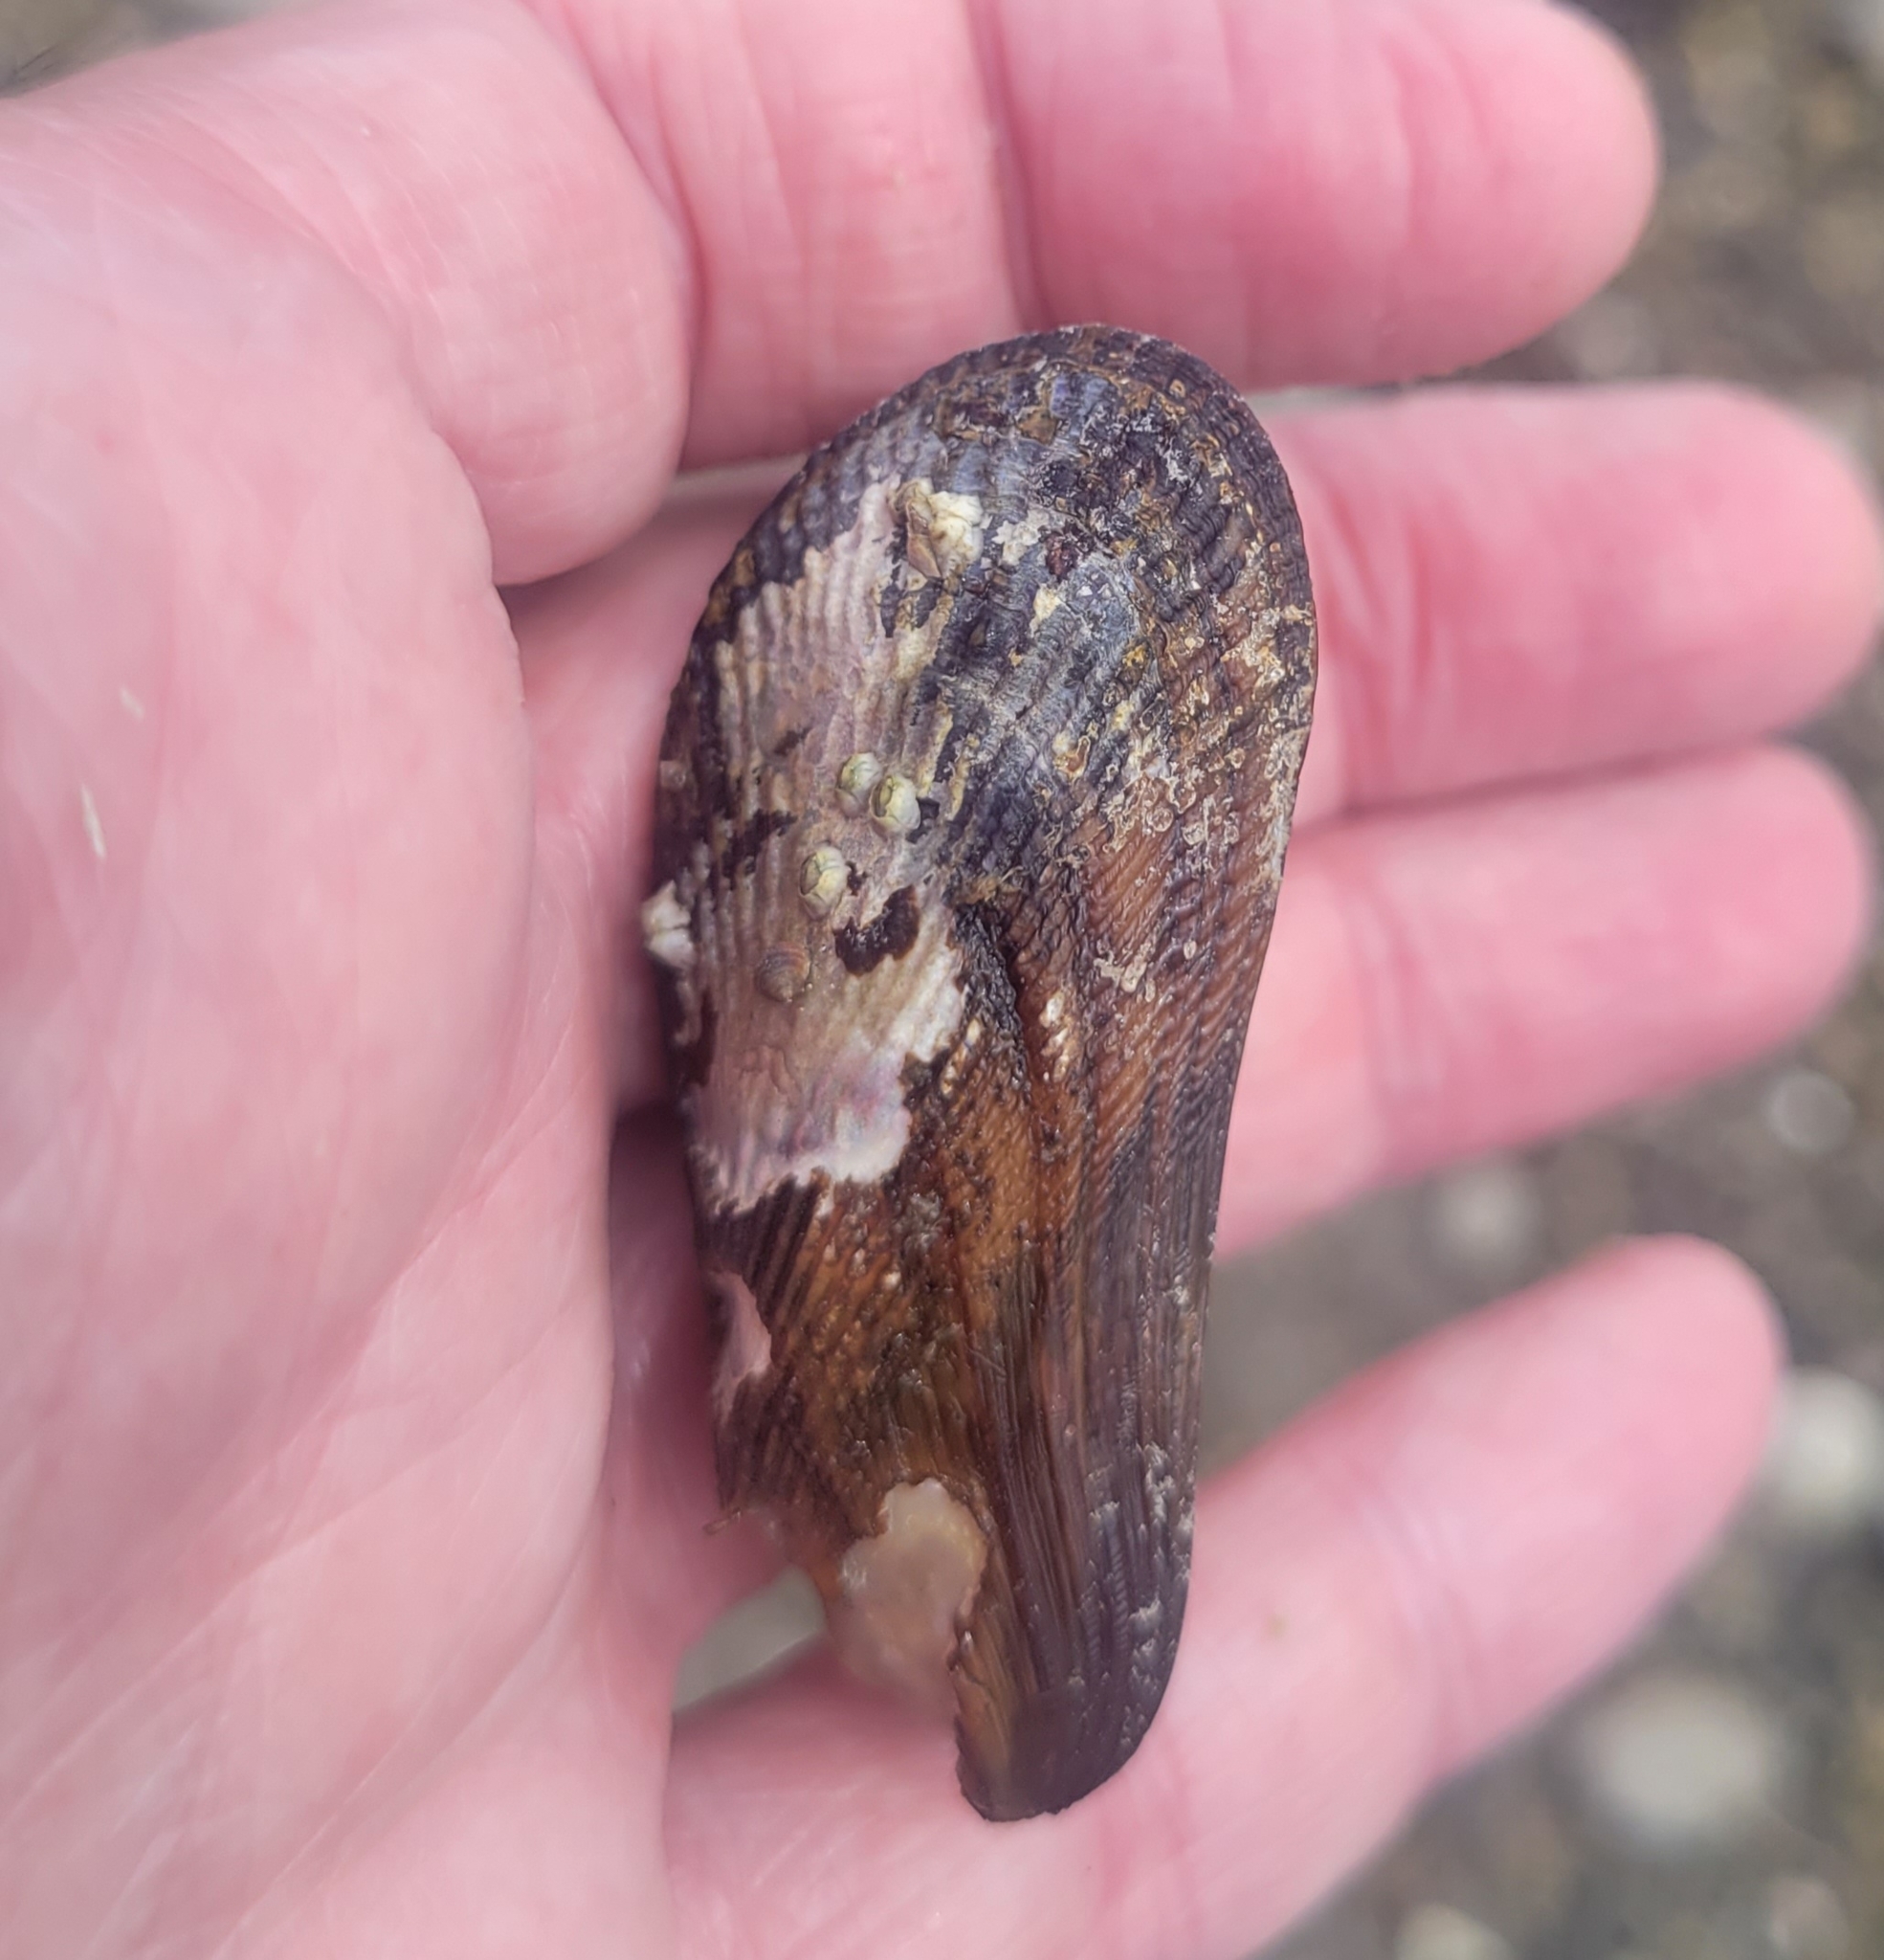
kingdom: Animalia
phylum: Mollusca
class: Bivalvia
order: Mytilida
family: Mytilidae
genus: Geukensia
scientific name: Geukensia demissa
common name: Ribbed mussel
